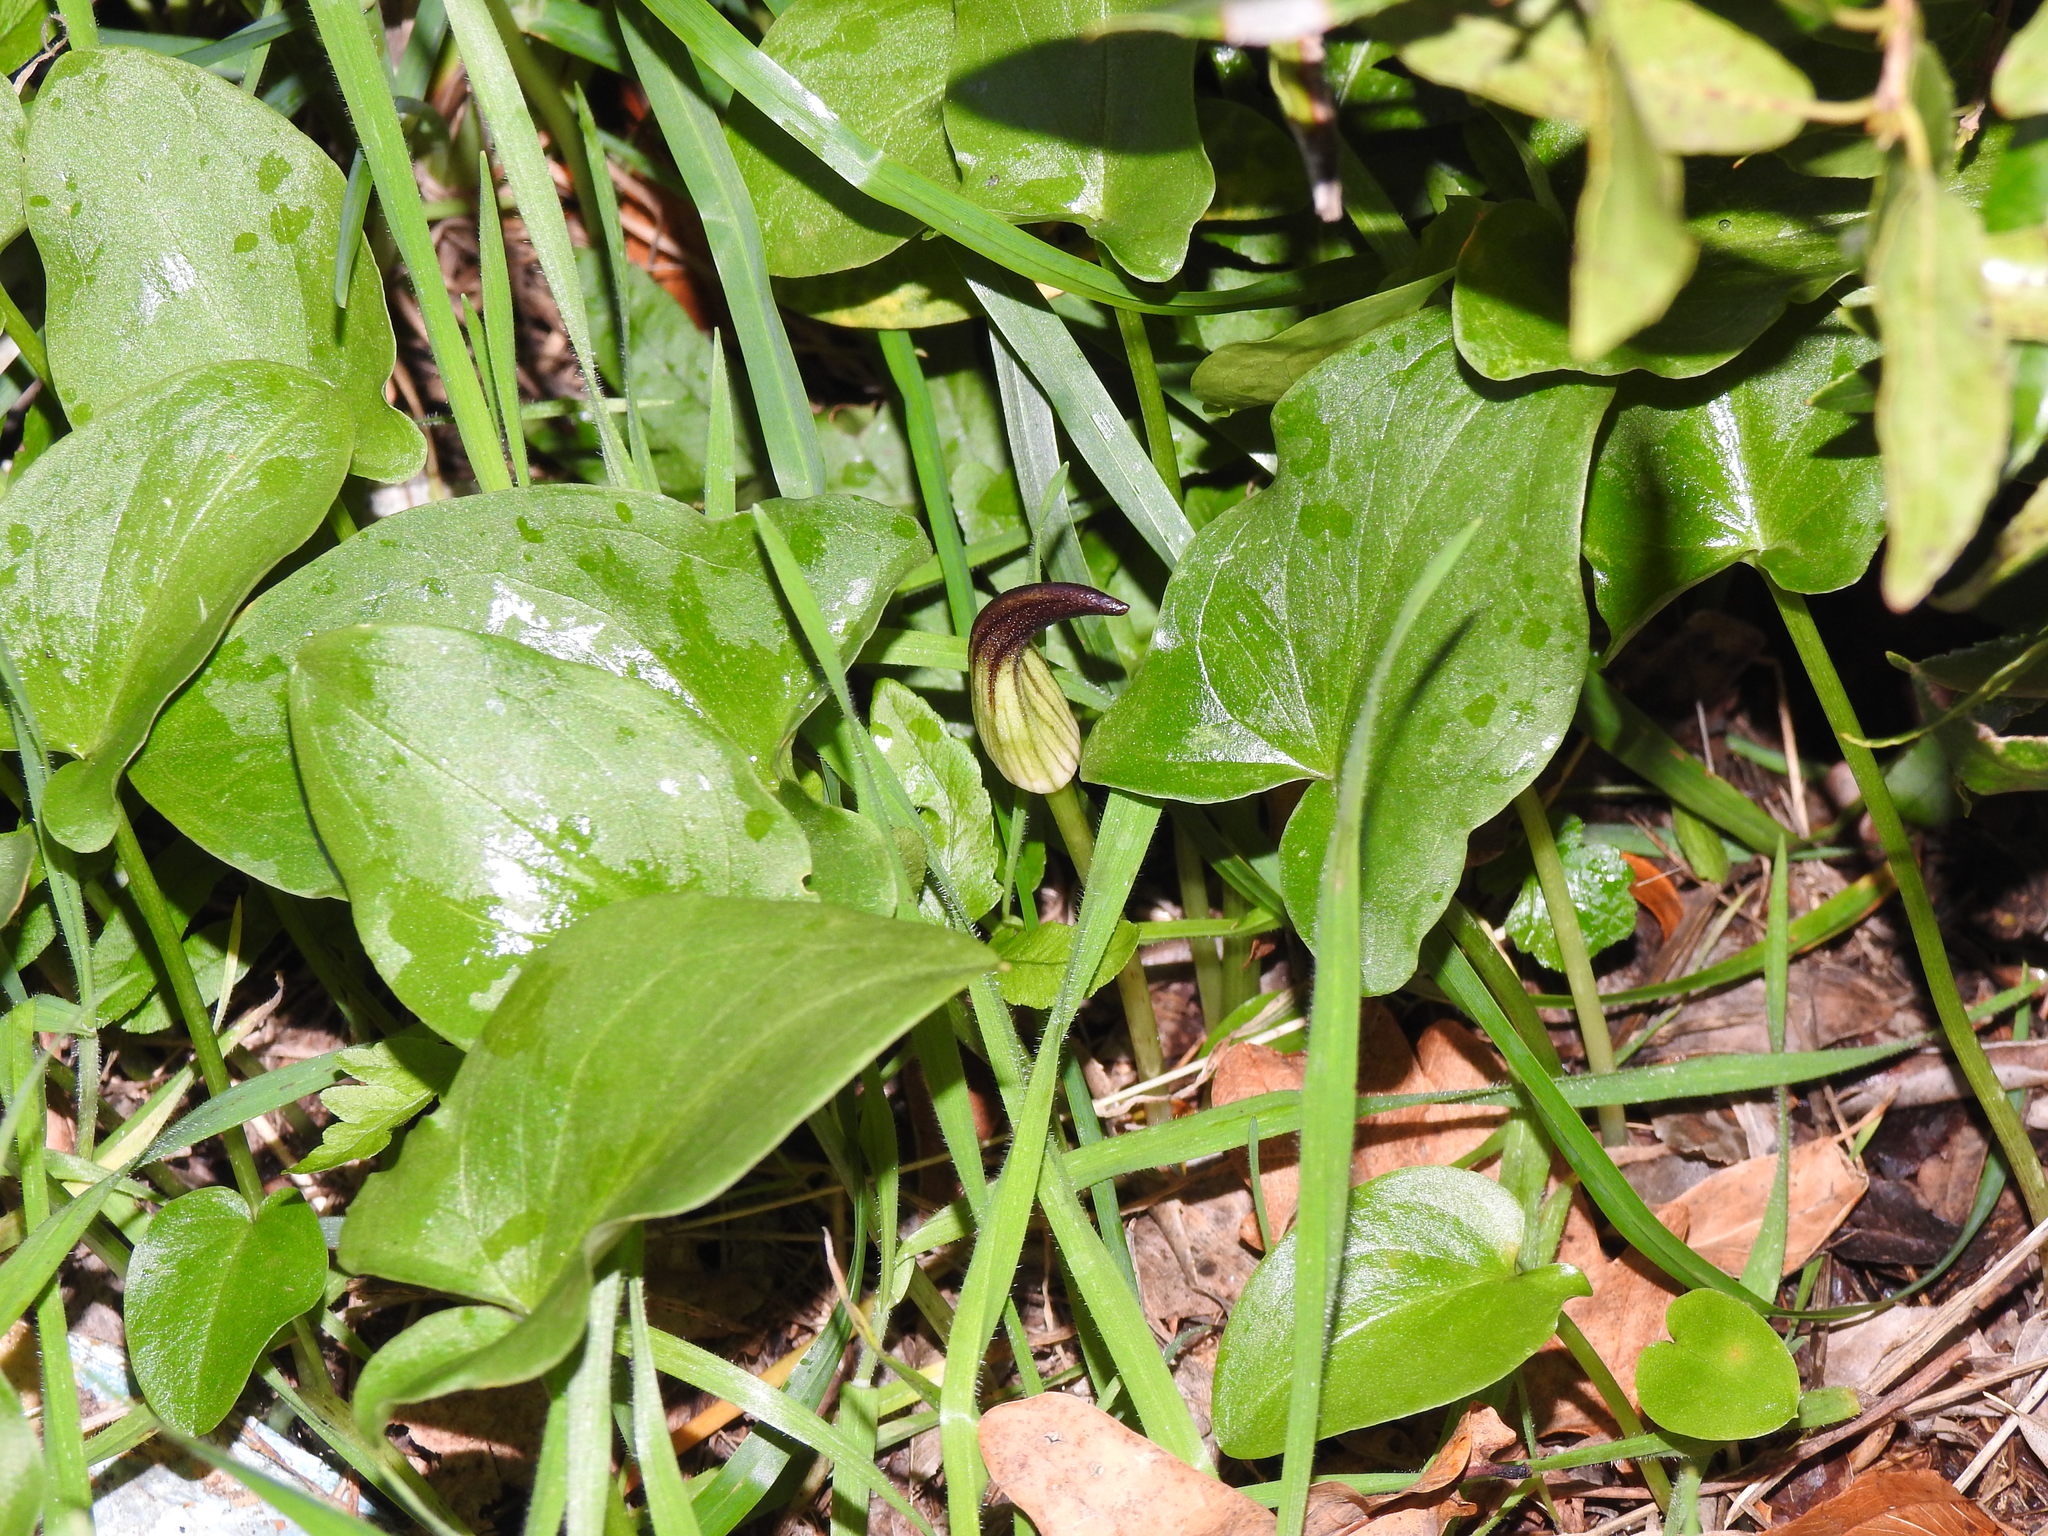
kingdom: Plantae
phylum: Tracheophyta
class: Liliopsida
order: Alismatales
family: Araceae
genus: Arisarum
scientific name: Arisarum simorrhinum
